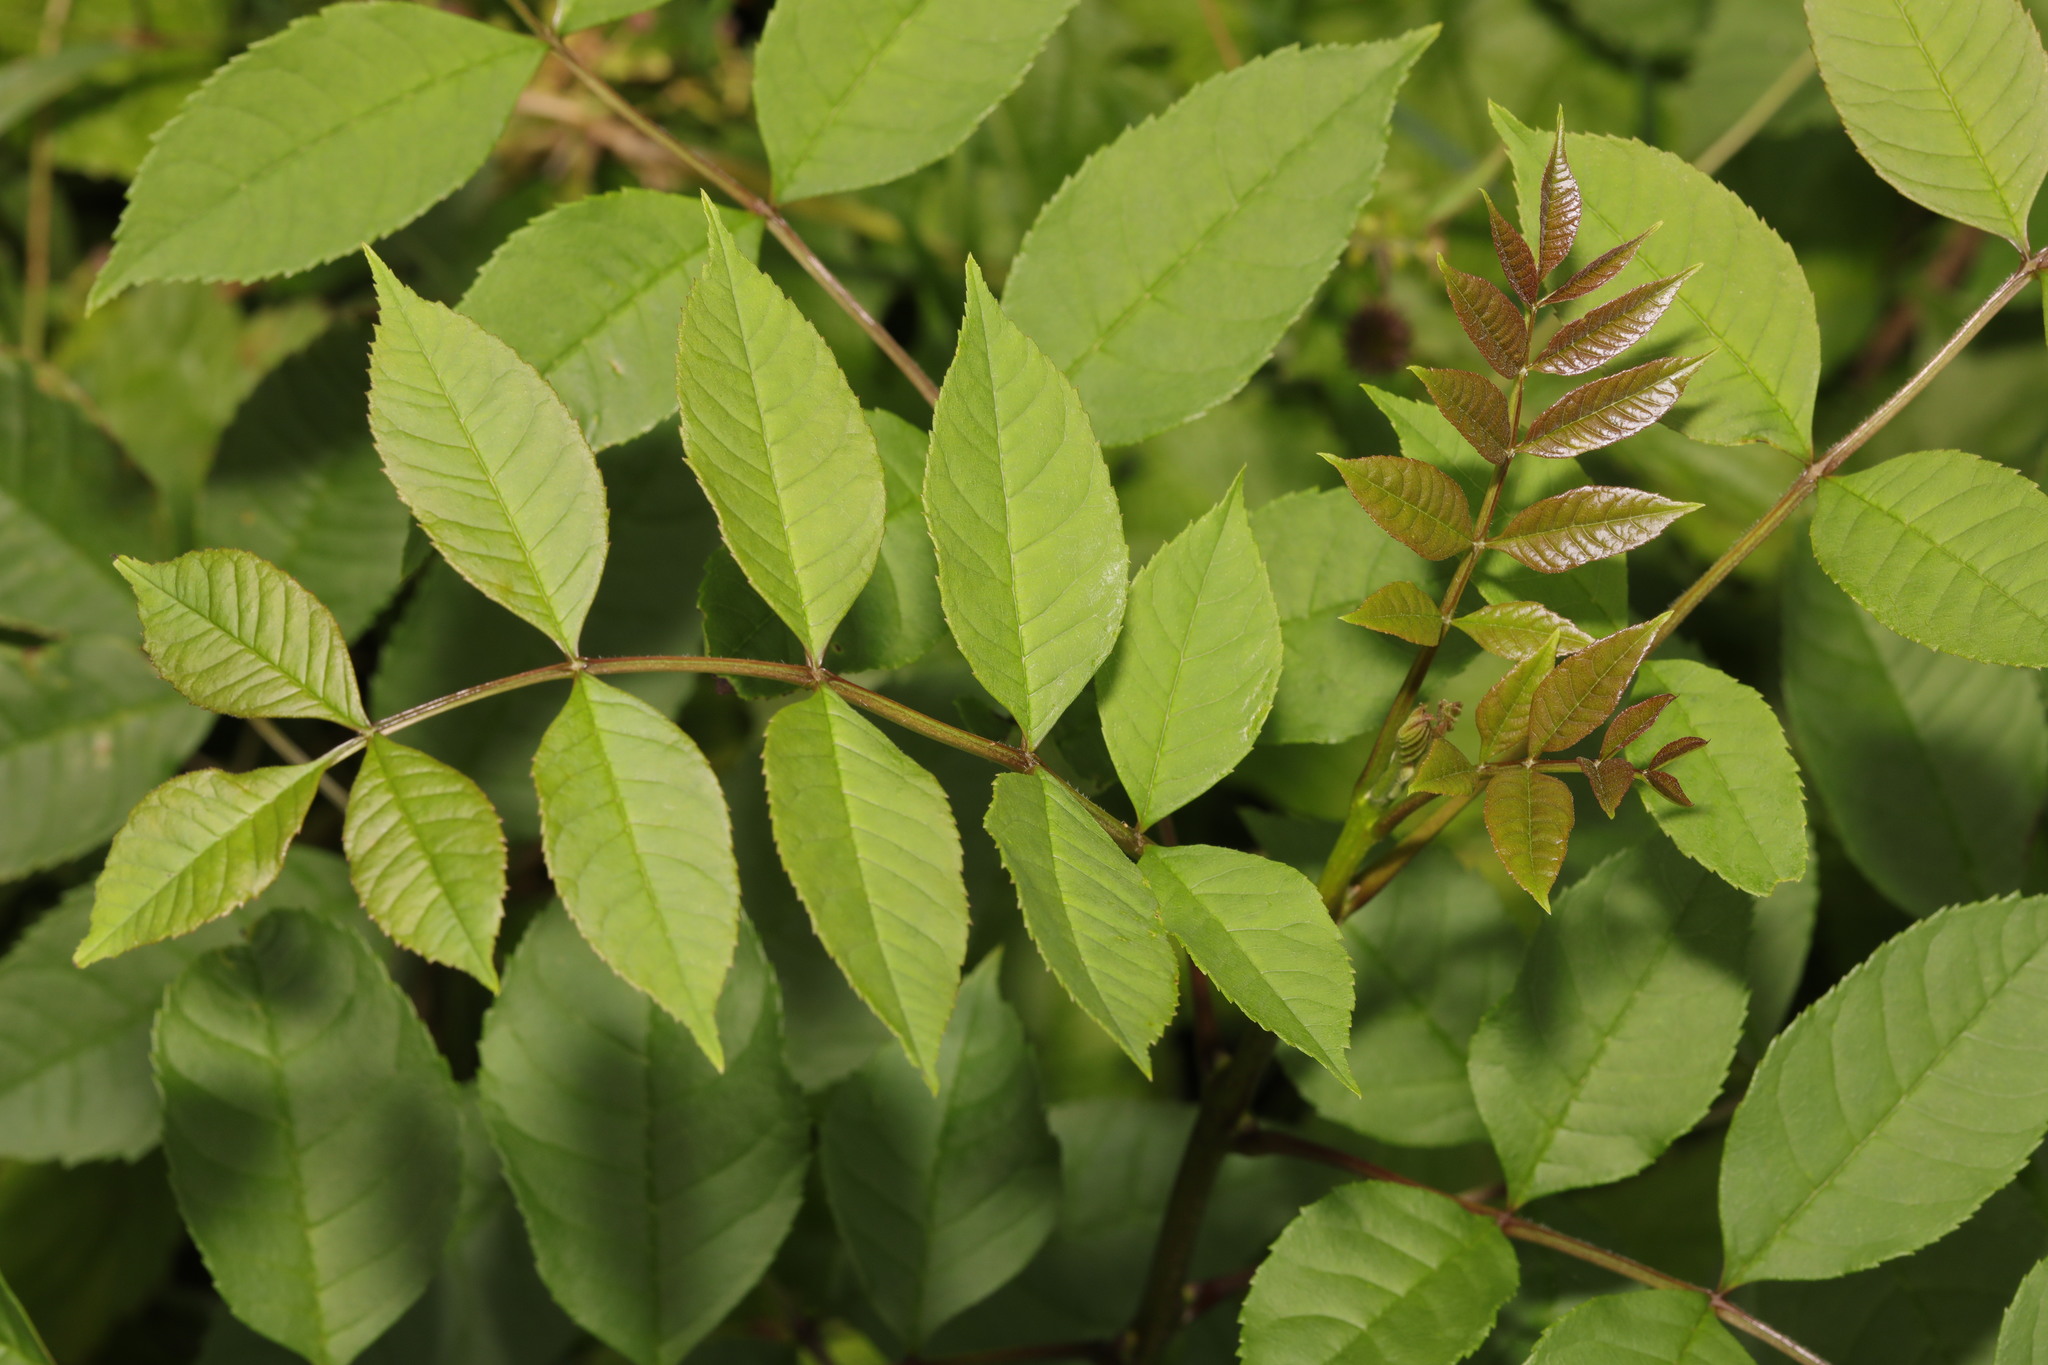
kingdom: Plantae
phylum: Tracheophyta
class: Magnoliopsida
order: Lamiales
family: Oleaceae
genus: Fraxinus
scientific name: Fraxinus excelsior
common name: European ash
